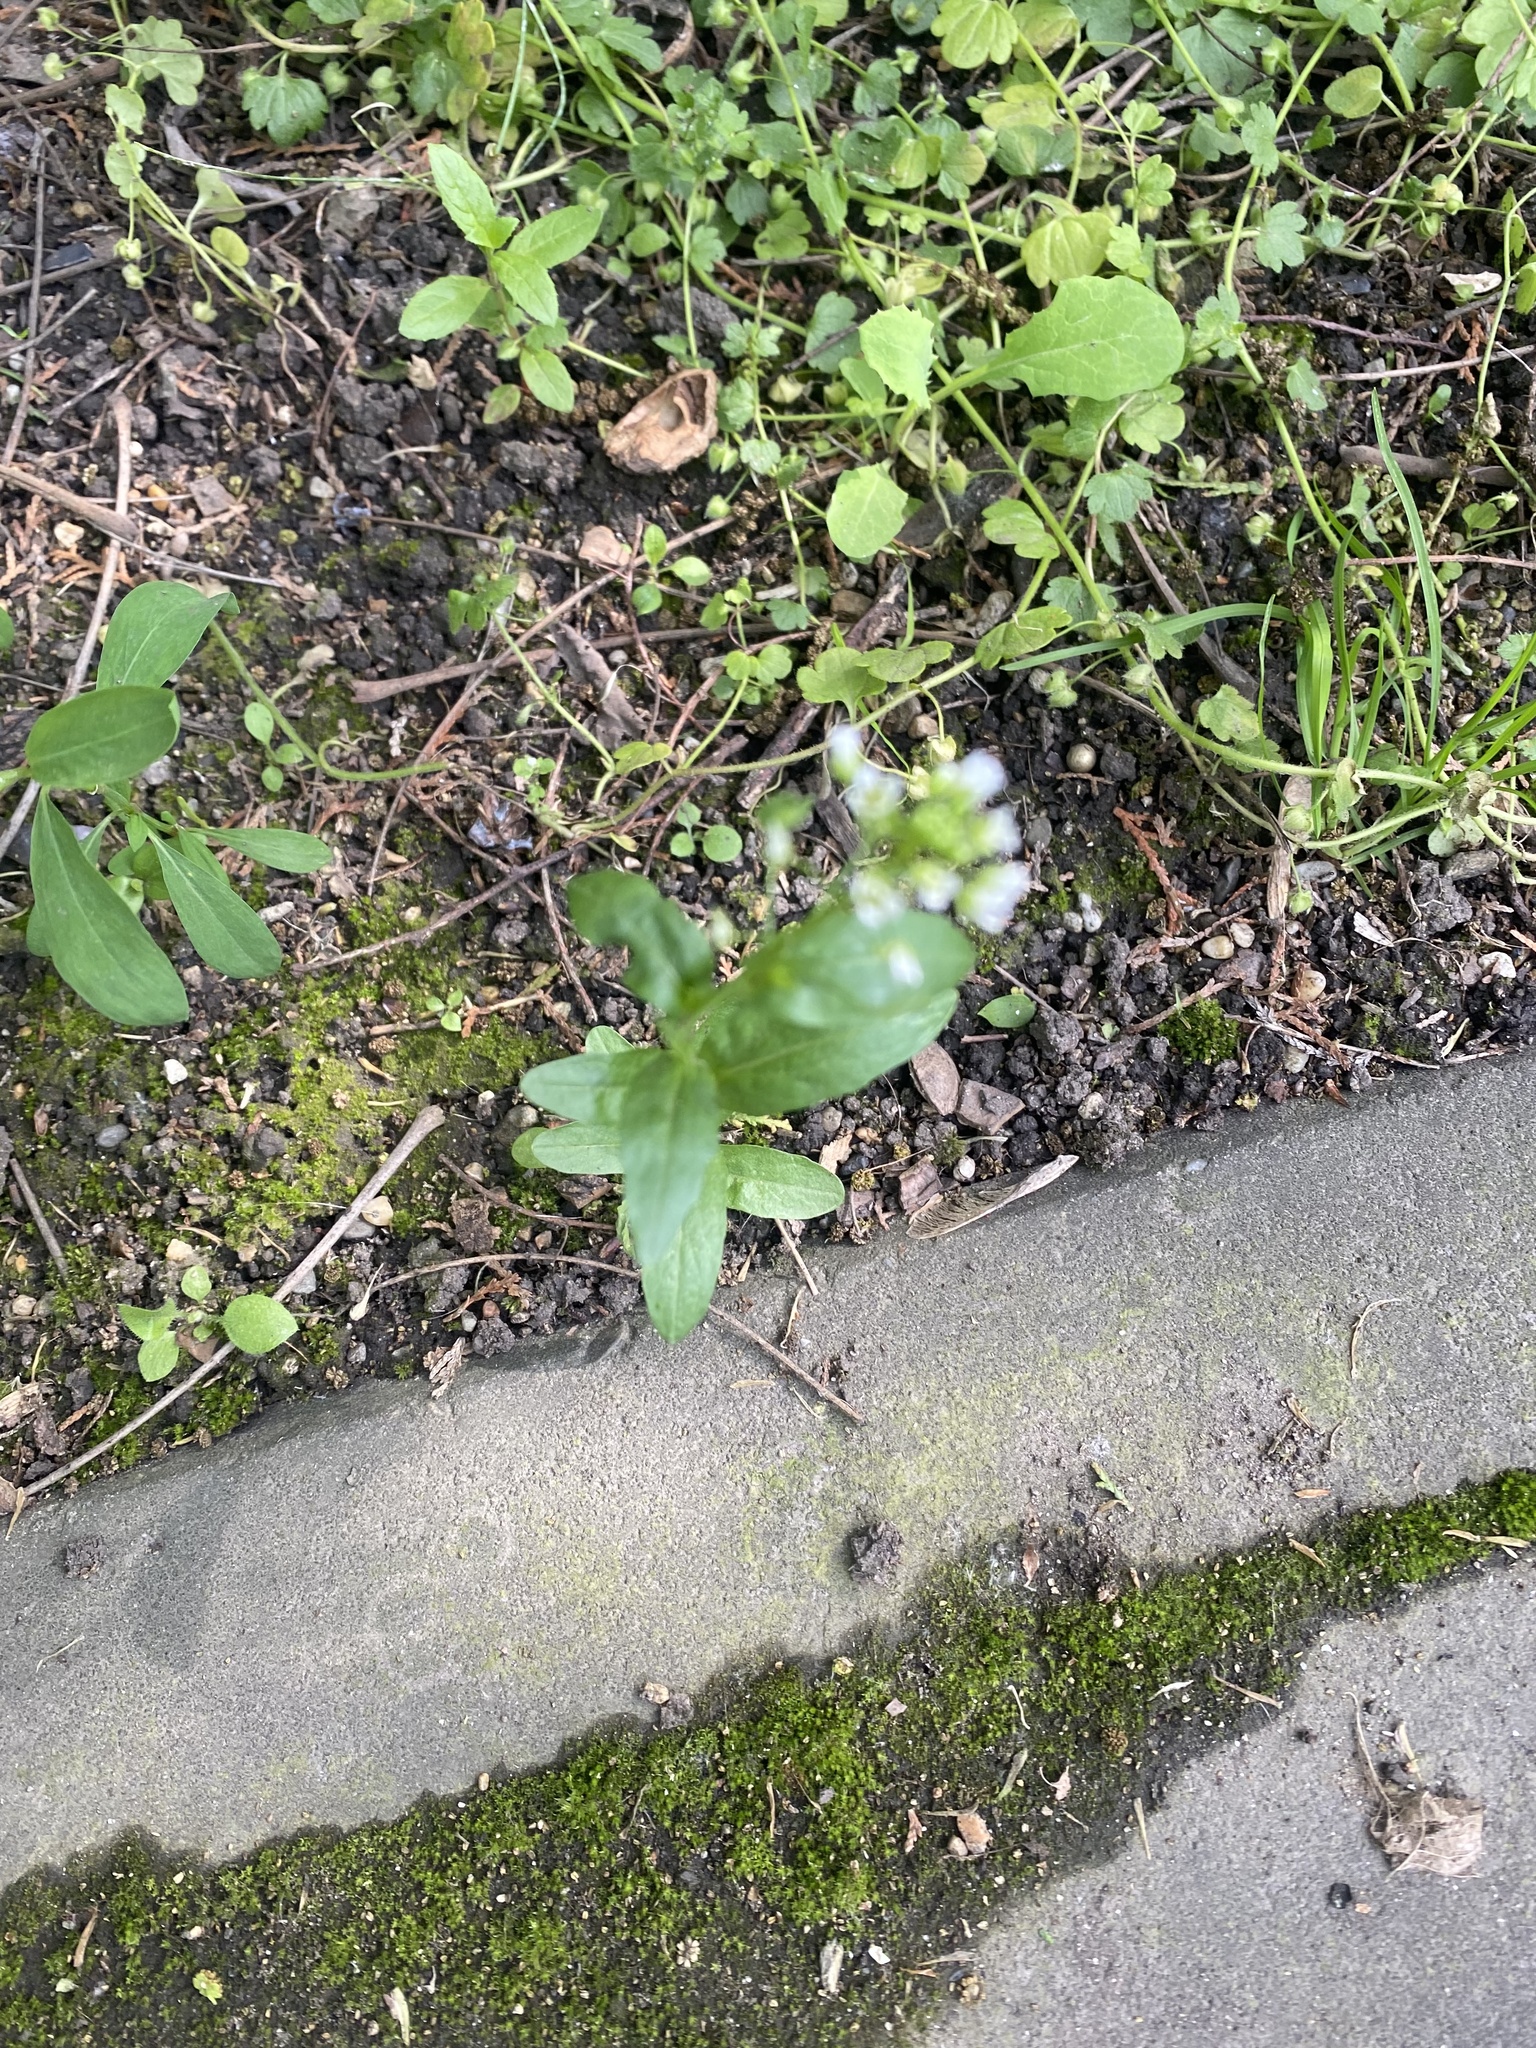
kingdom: Plantae
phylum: Tracheophyta
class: Magnoliopsida
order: Brassicales
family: Brassicaceae
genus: Thlaspi
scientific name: Thlaspi arvense
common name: Field pennycress
